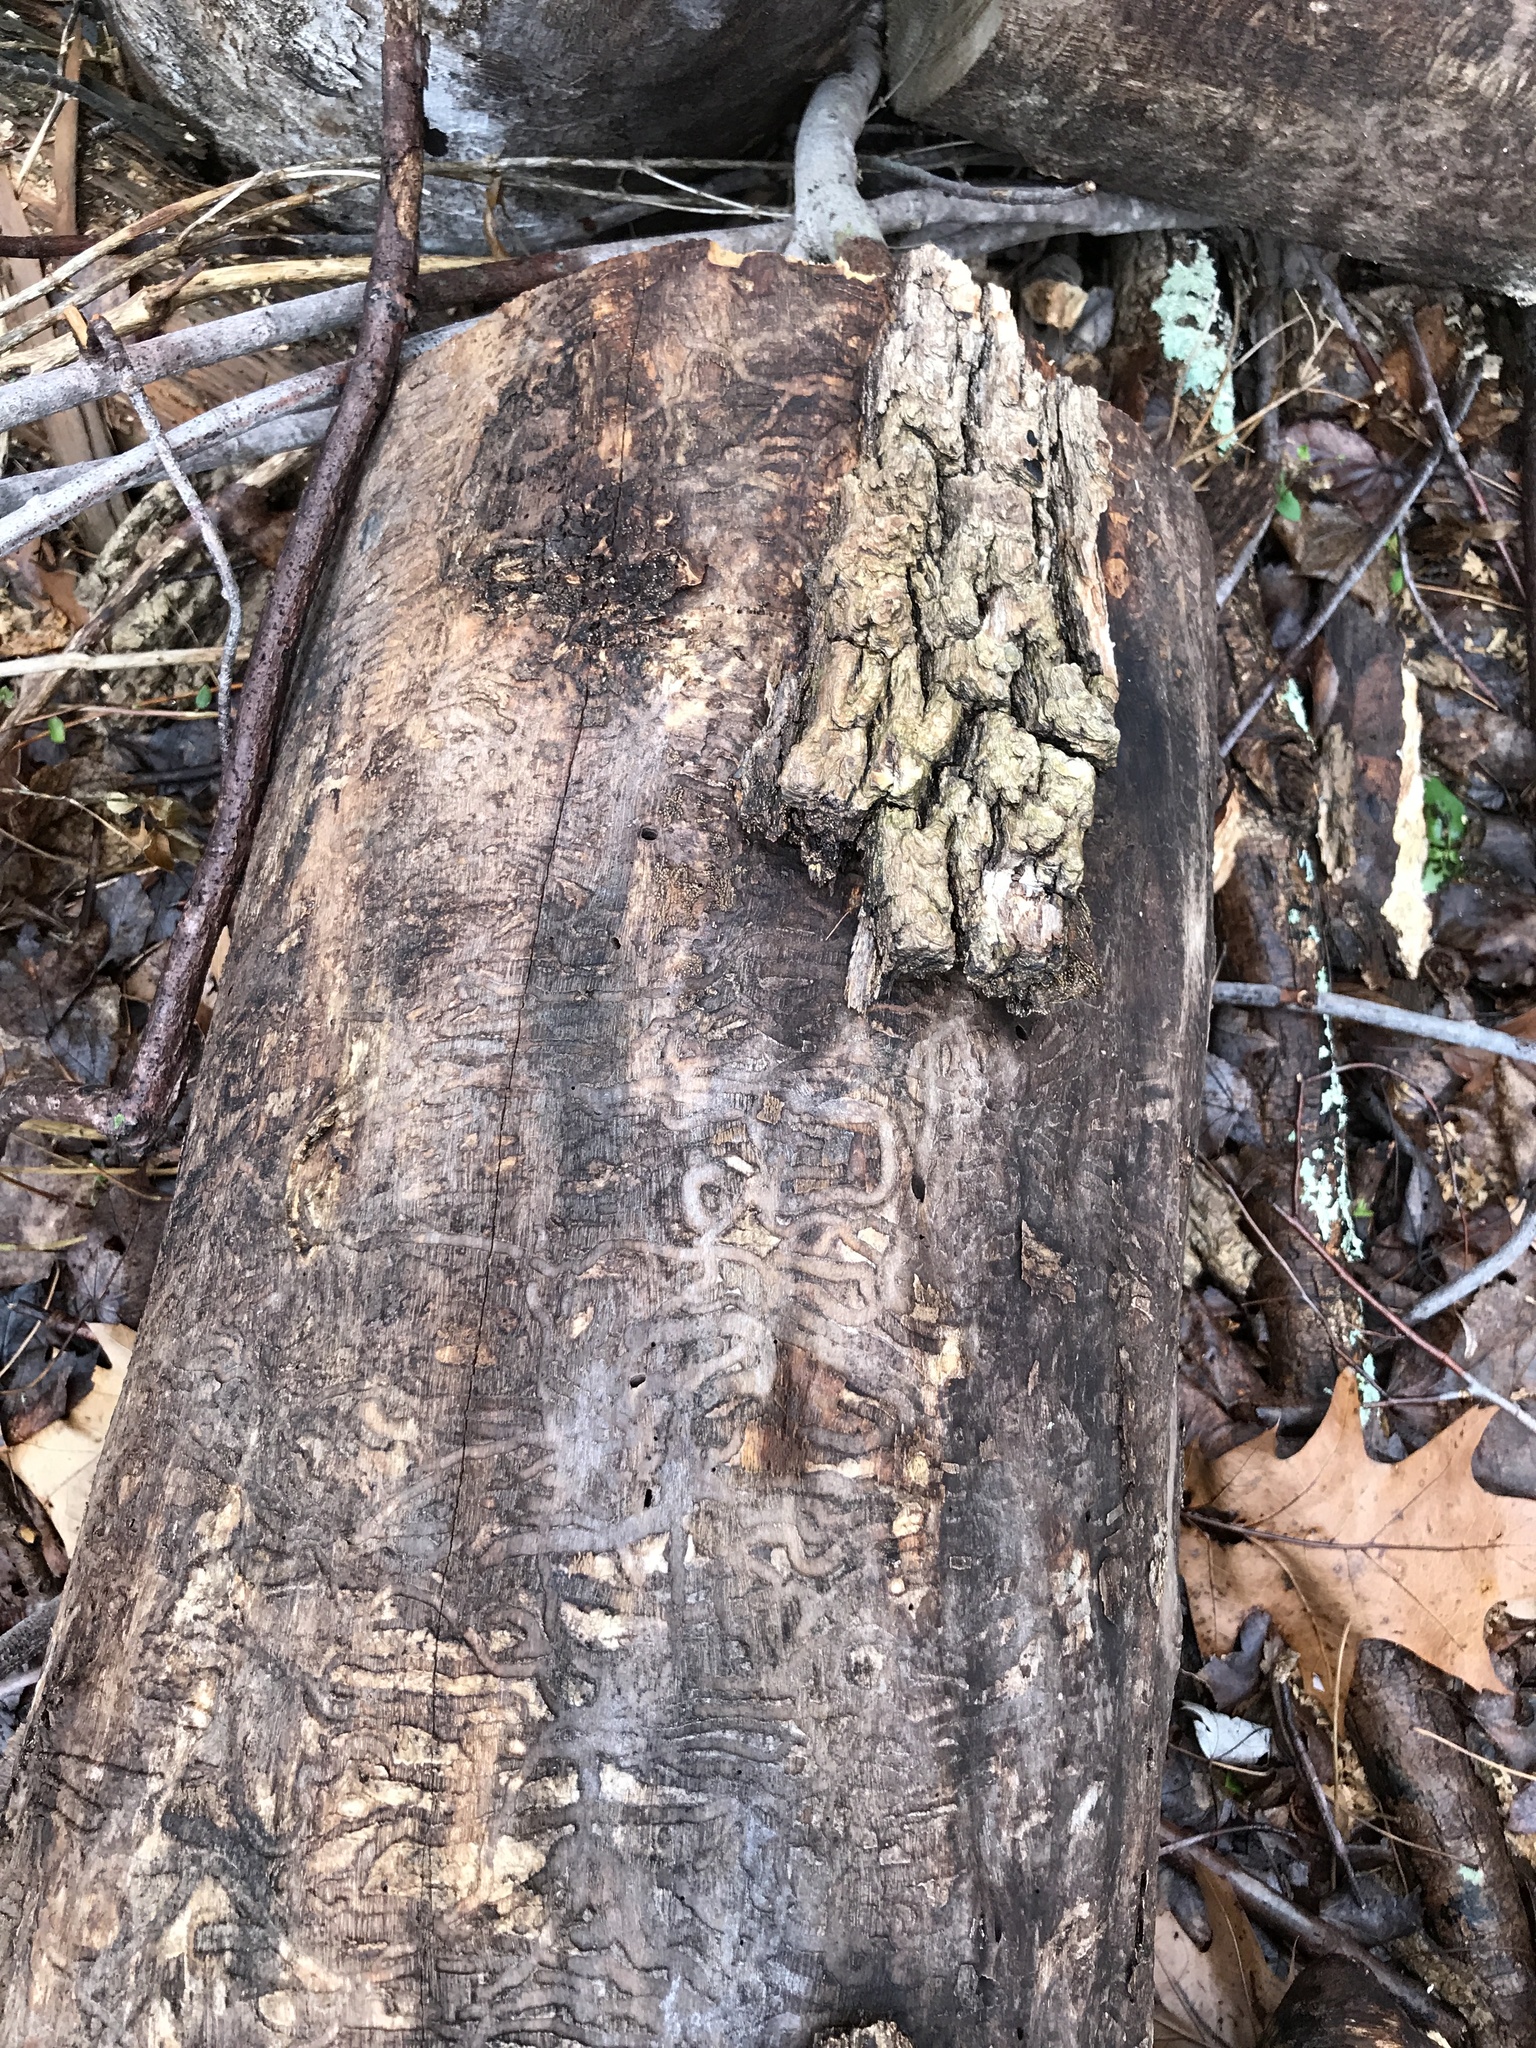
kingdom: Animalia
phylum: Arthropoda
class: Insecta
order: Coleoptera
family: Buprestidae
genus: Agrilus
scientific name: Agrilus planipennis
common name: Emerald ash borer
